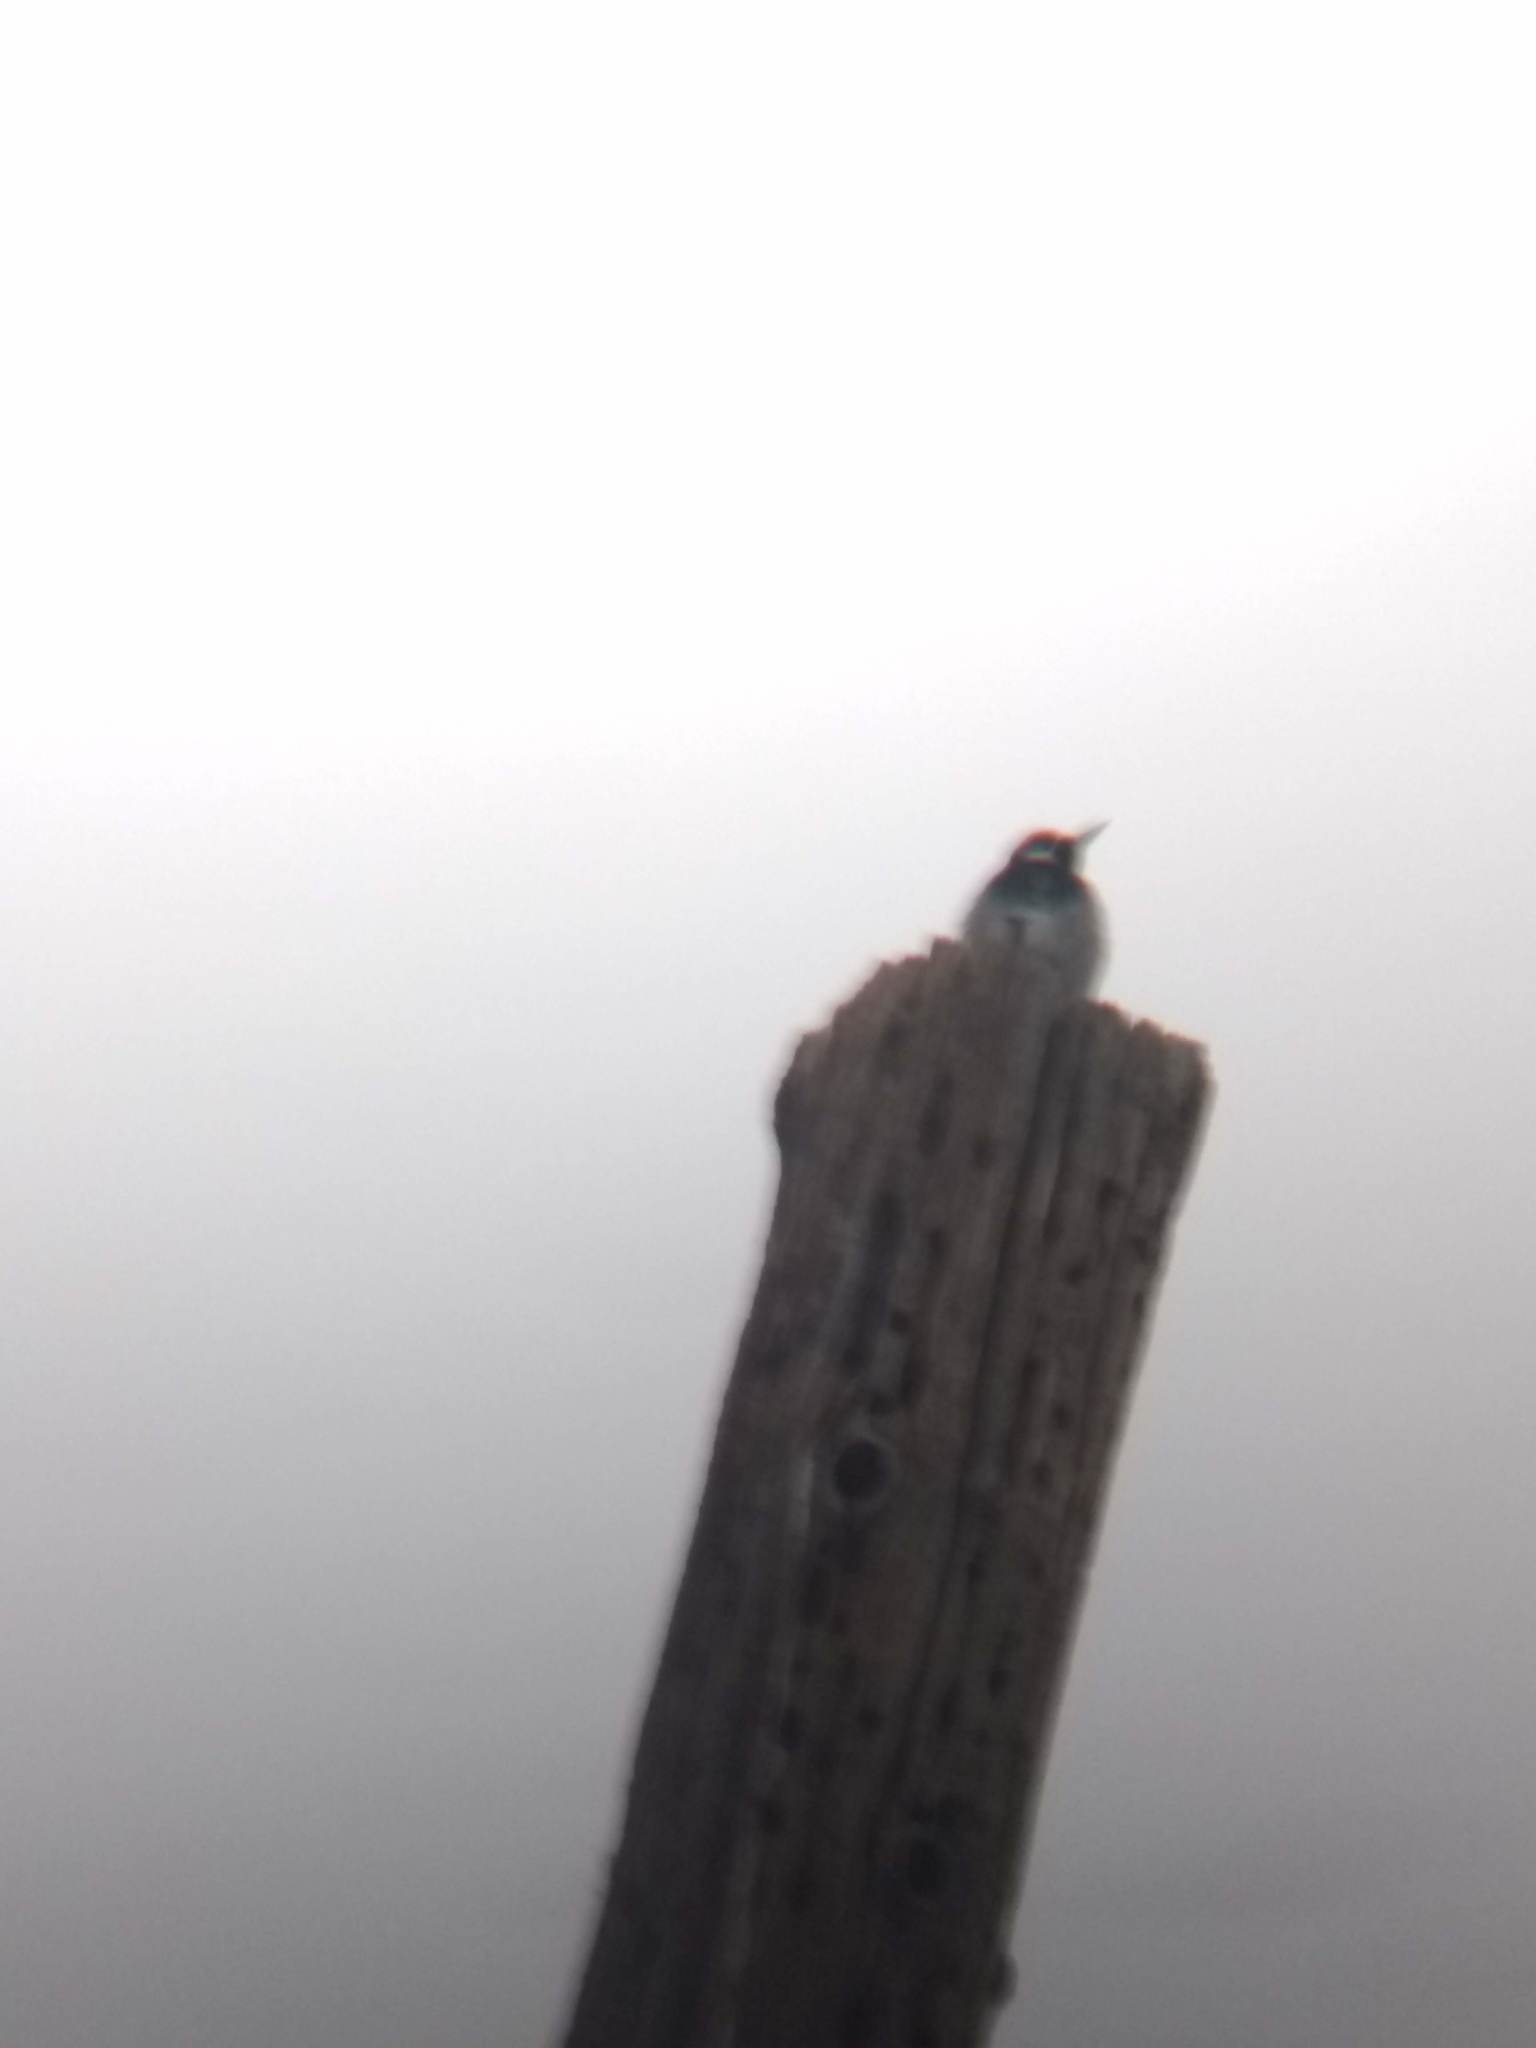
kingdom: Animalia
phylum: Chordata
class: Aves
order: Piciformes
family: Picidae
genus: Melanerpes
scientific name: Melanerpes formicivorus
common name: Acorn woodpecker
